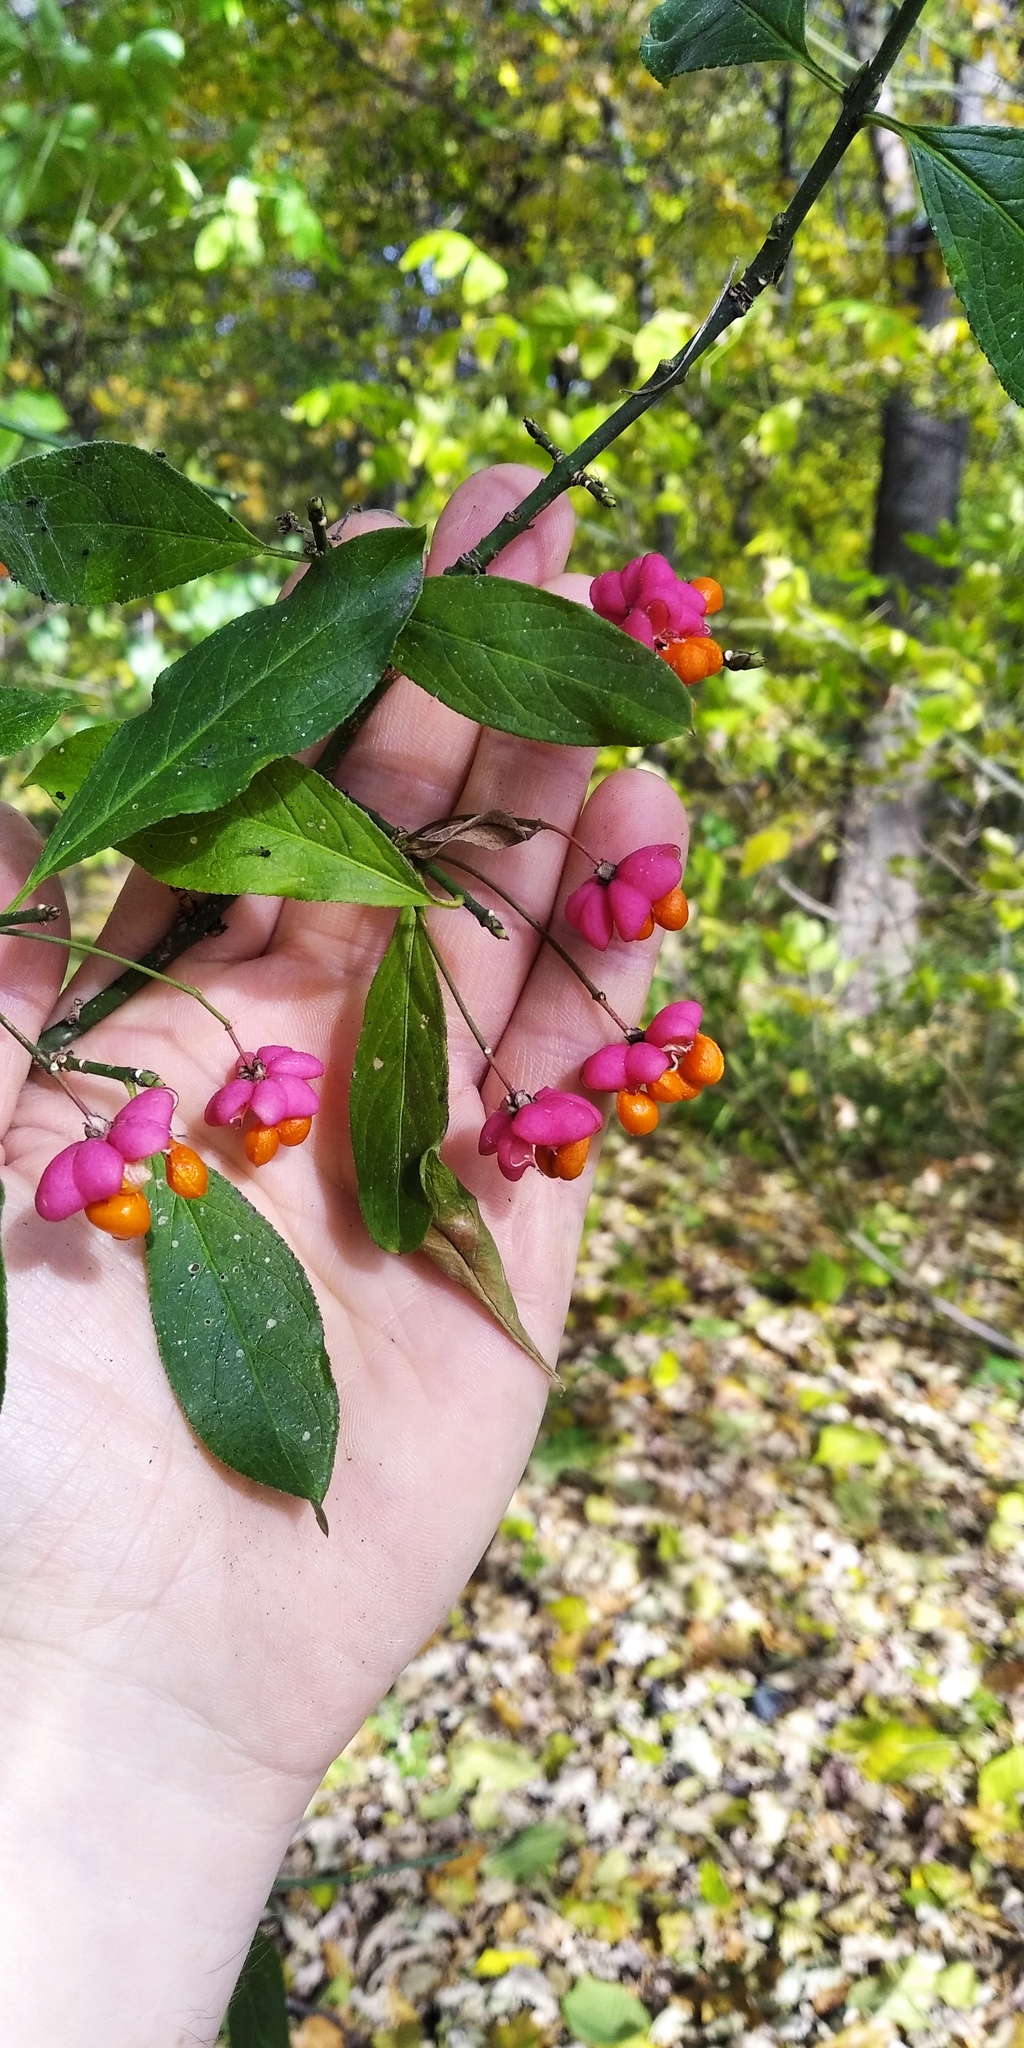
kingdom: Plantae
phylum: Tracheophyta
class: Magnoliopsida
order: Celastrales
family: Celastraceae
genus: Euonymus
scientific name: Euonymus europaeus
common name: Spindle
